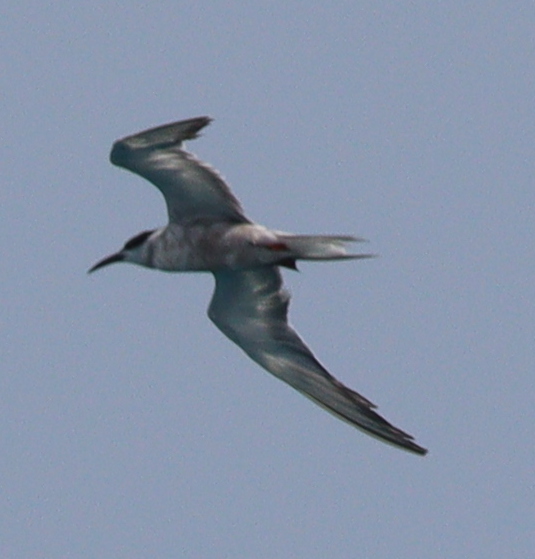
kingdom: Animalia
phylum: Chordata
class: Aves
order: Charadriiformes
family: Laridae
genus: Sterna
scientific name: Sterna repressa
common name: White-cheeked tern
